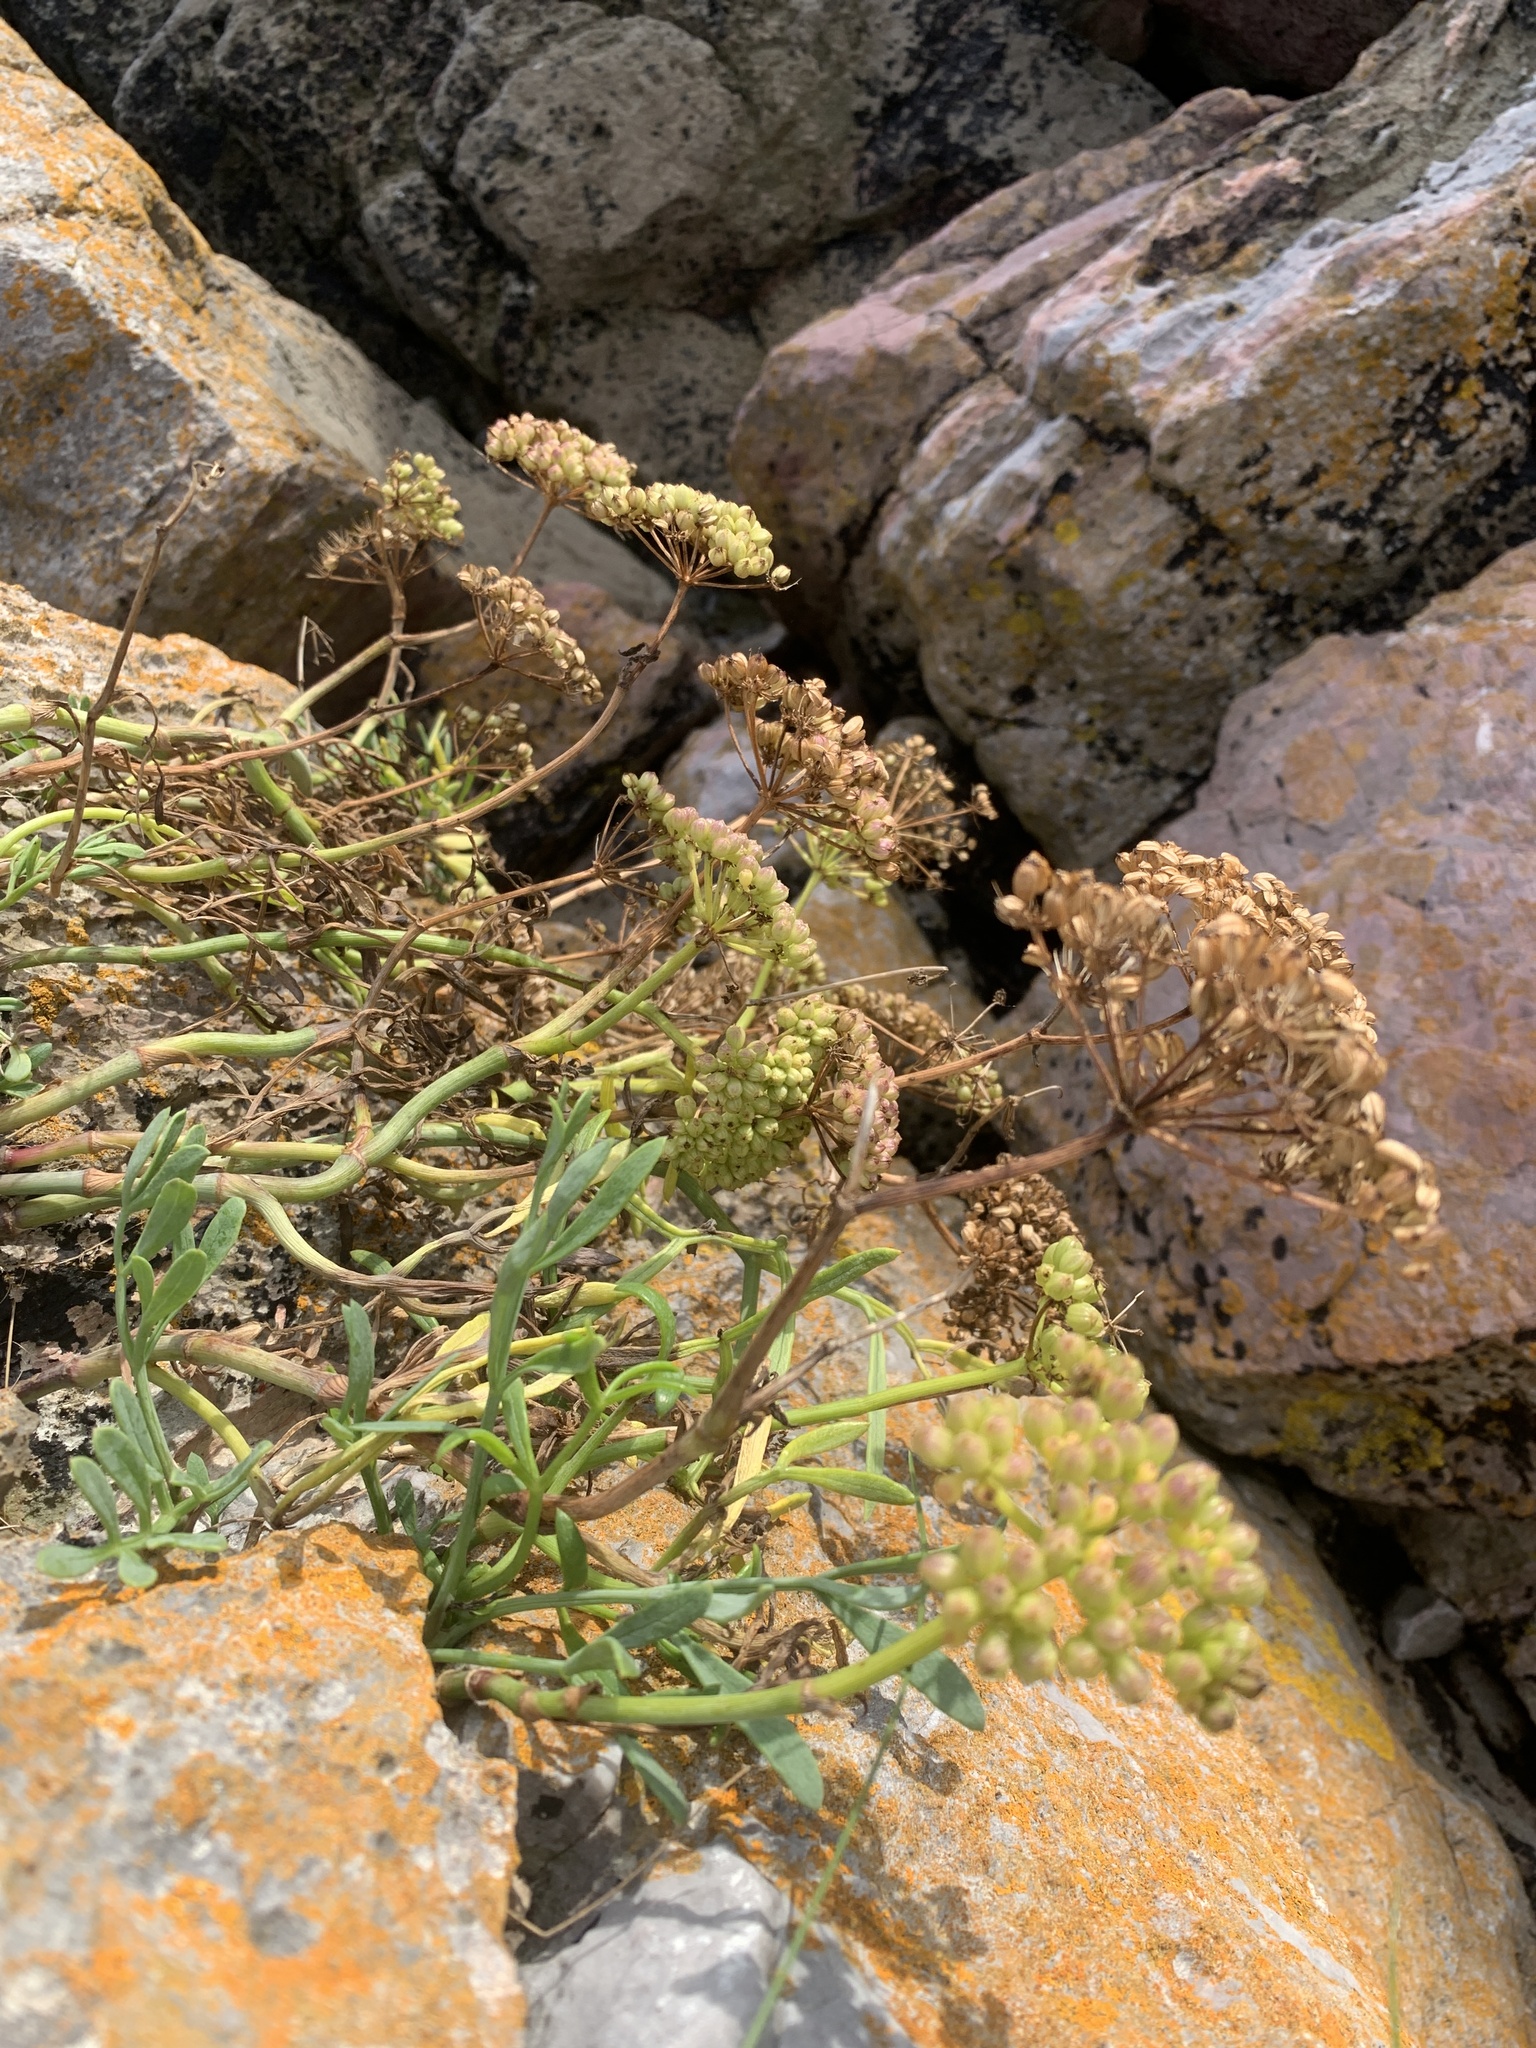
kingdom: Plantae
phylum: Tracheophyta
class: Magnoliopsida
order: Apiales
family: Apiaceae
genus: Crithmum
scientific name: Crithmum maritimum
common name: Rock samphire
